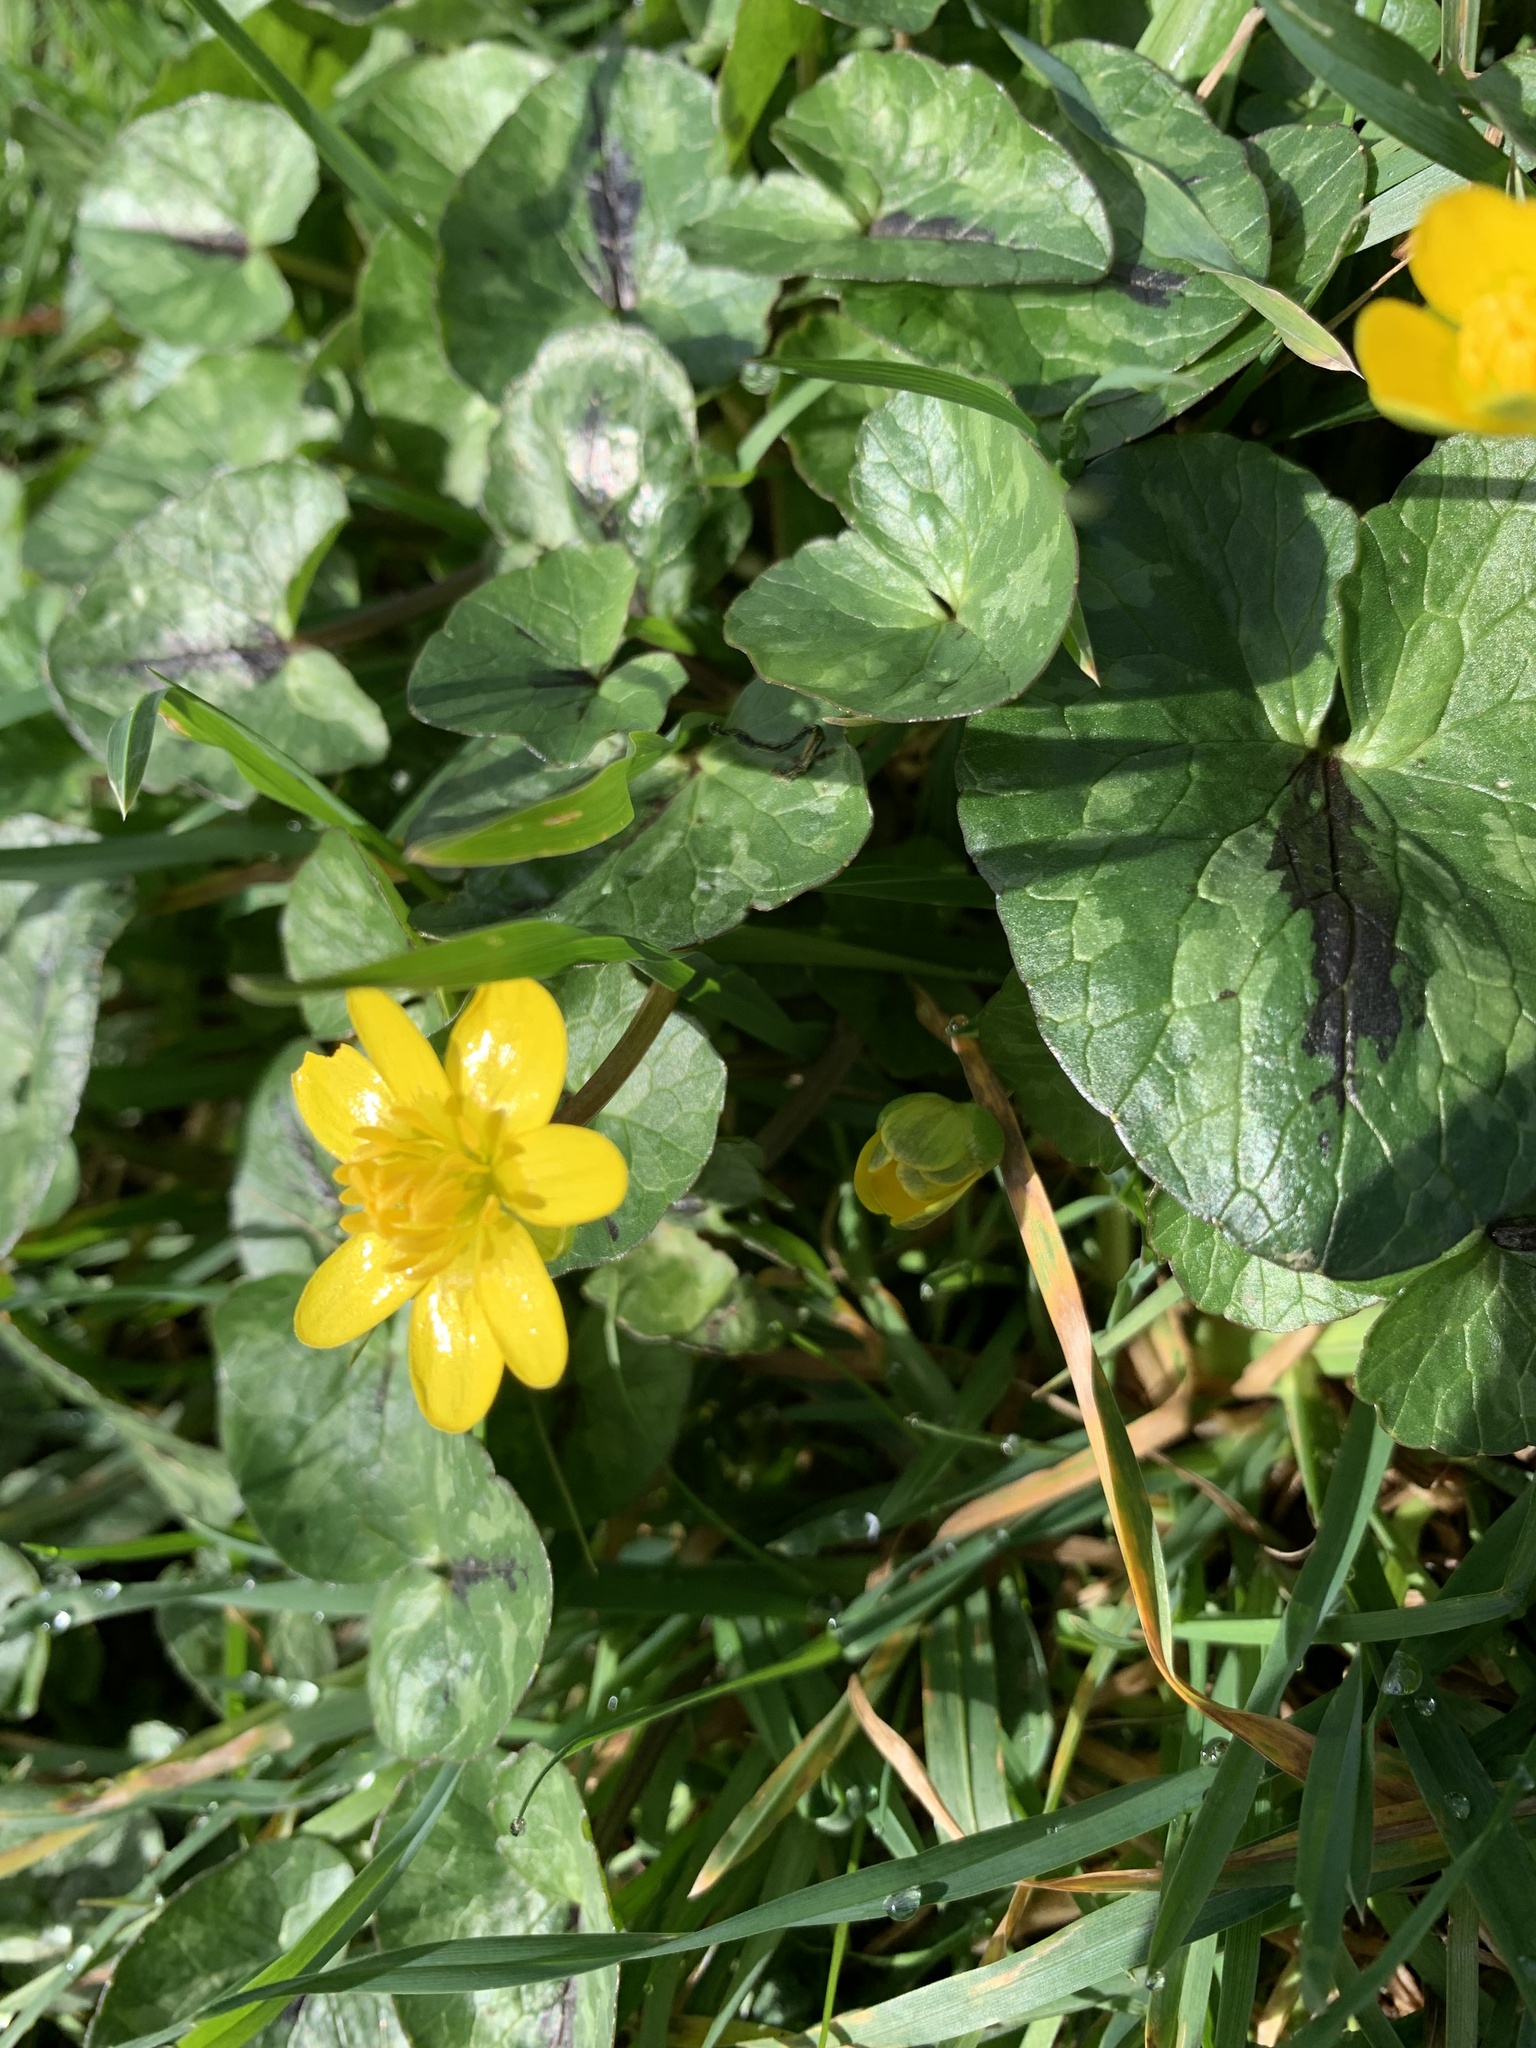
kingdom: Plantae
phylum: Tracheophyta
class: Magnoliopsida
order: Ranunculales
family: Ranunculaceae
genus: Ficaria
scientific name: Ficaria verna
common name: Lesser celandine
